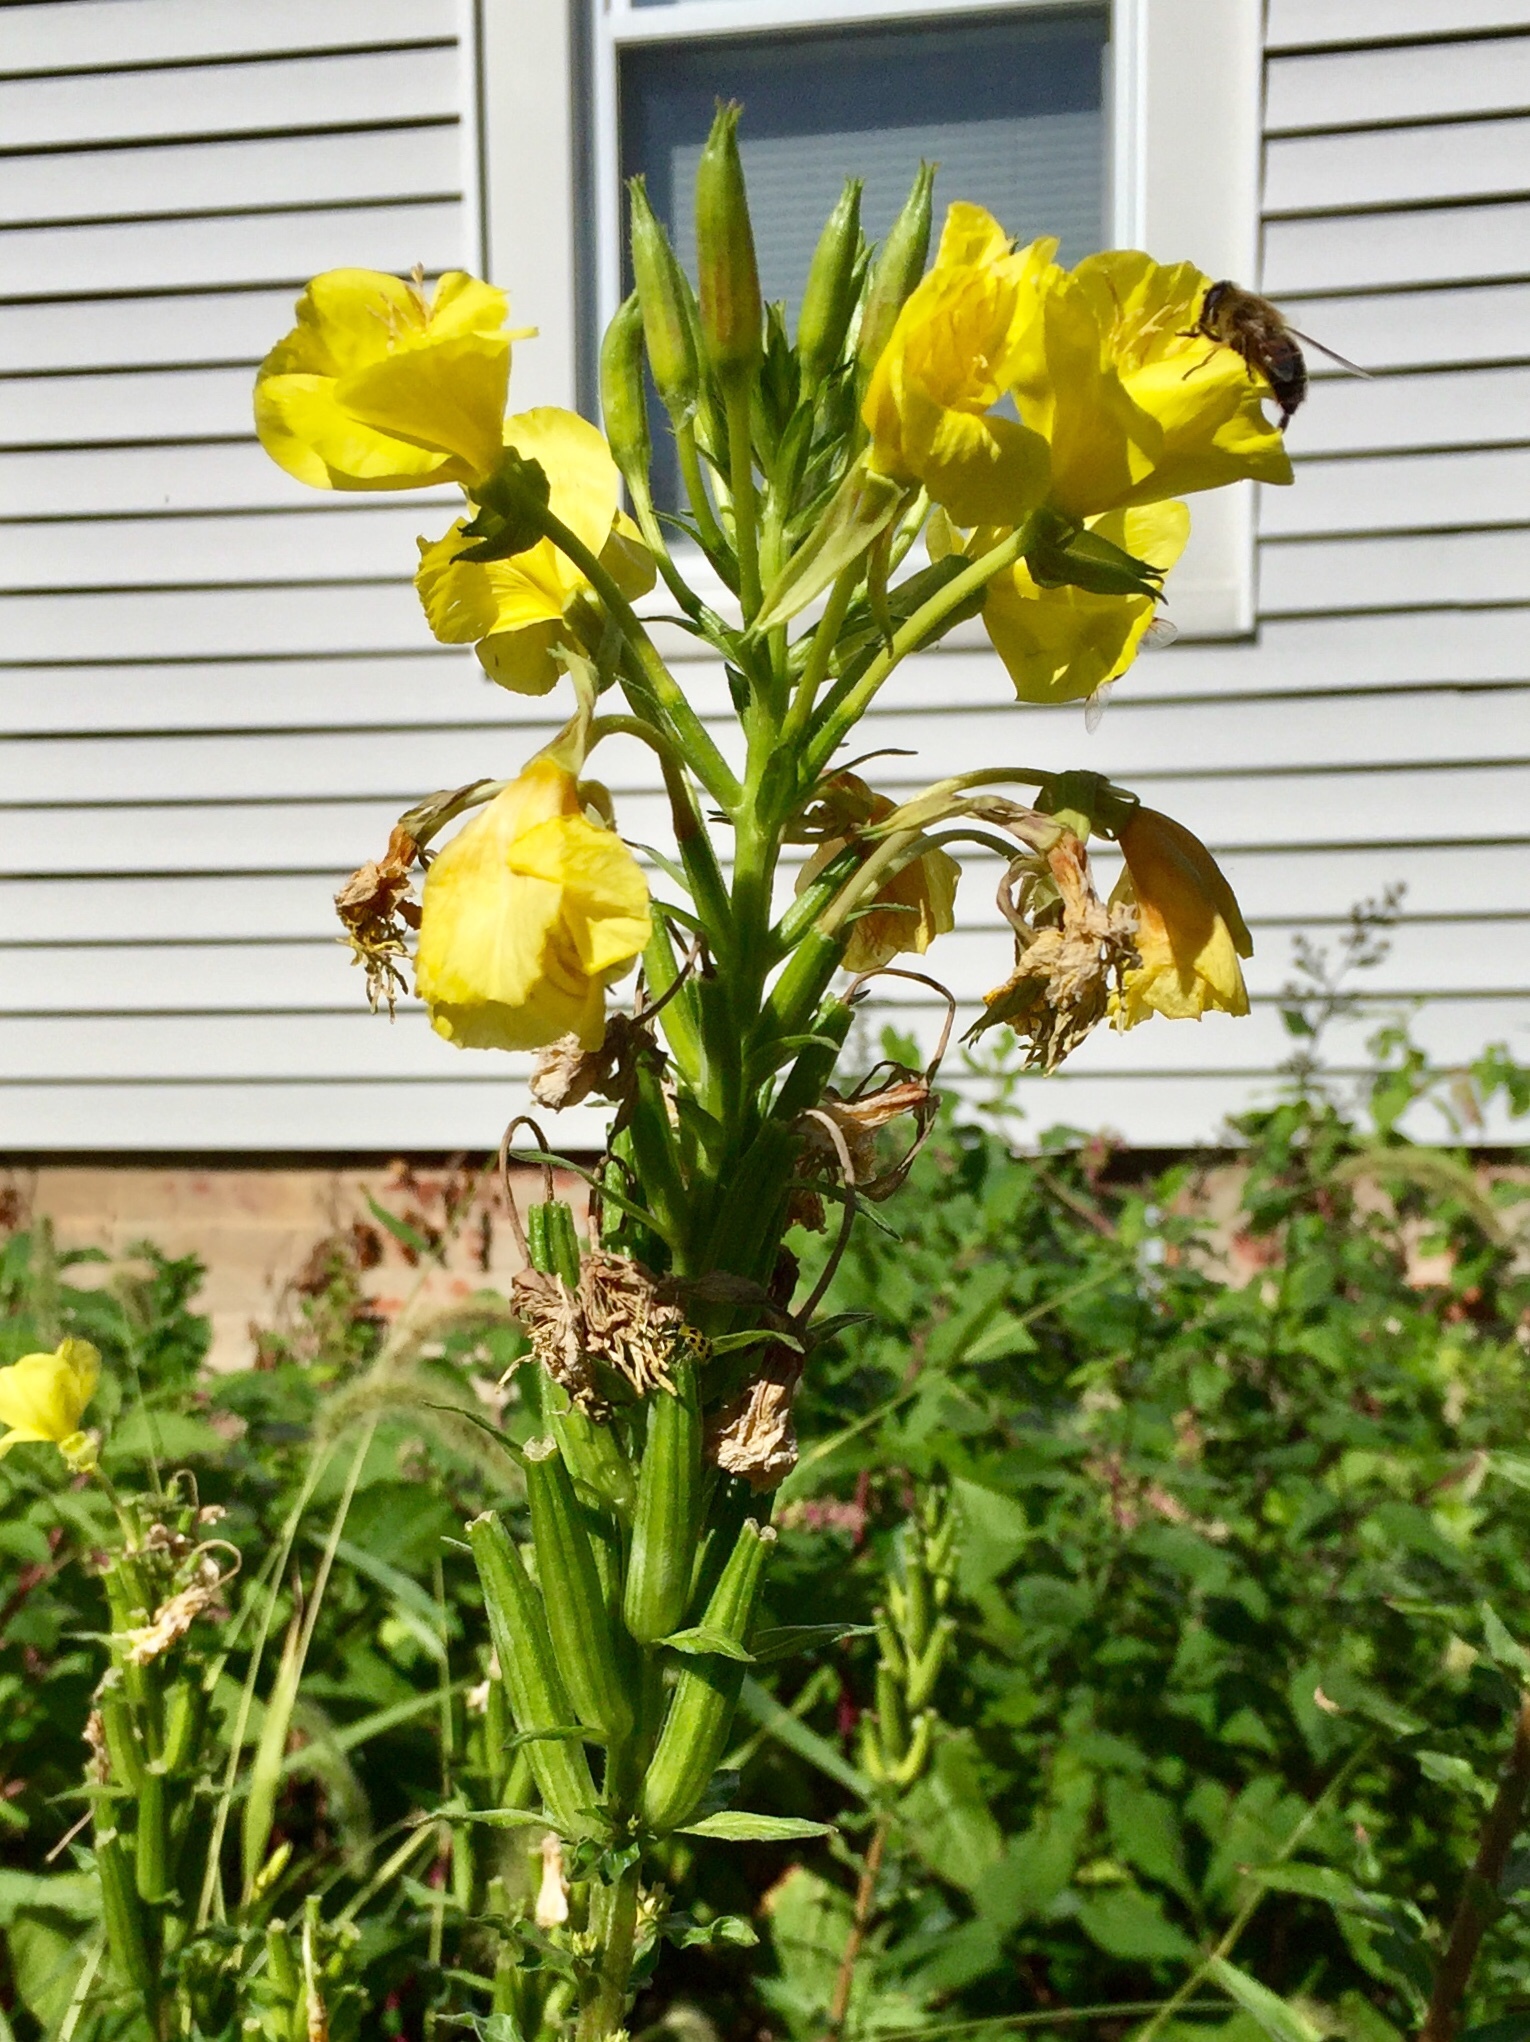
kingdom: Plantae
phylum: Tracheophyta
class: Magnoliopsida
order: Myrtales
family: Onagraceae
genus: Oenothera
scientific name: Oenothera biennis
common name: Common evening-primrose
